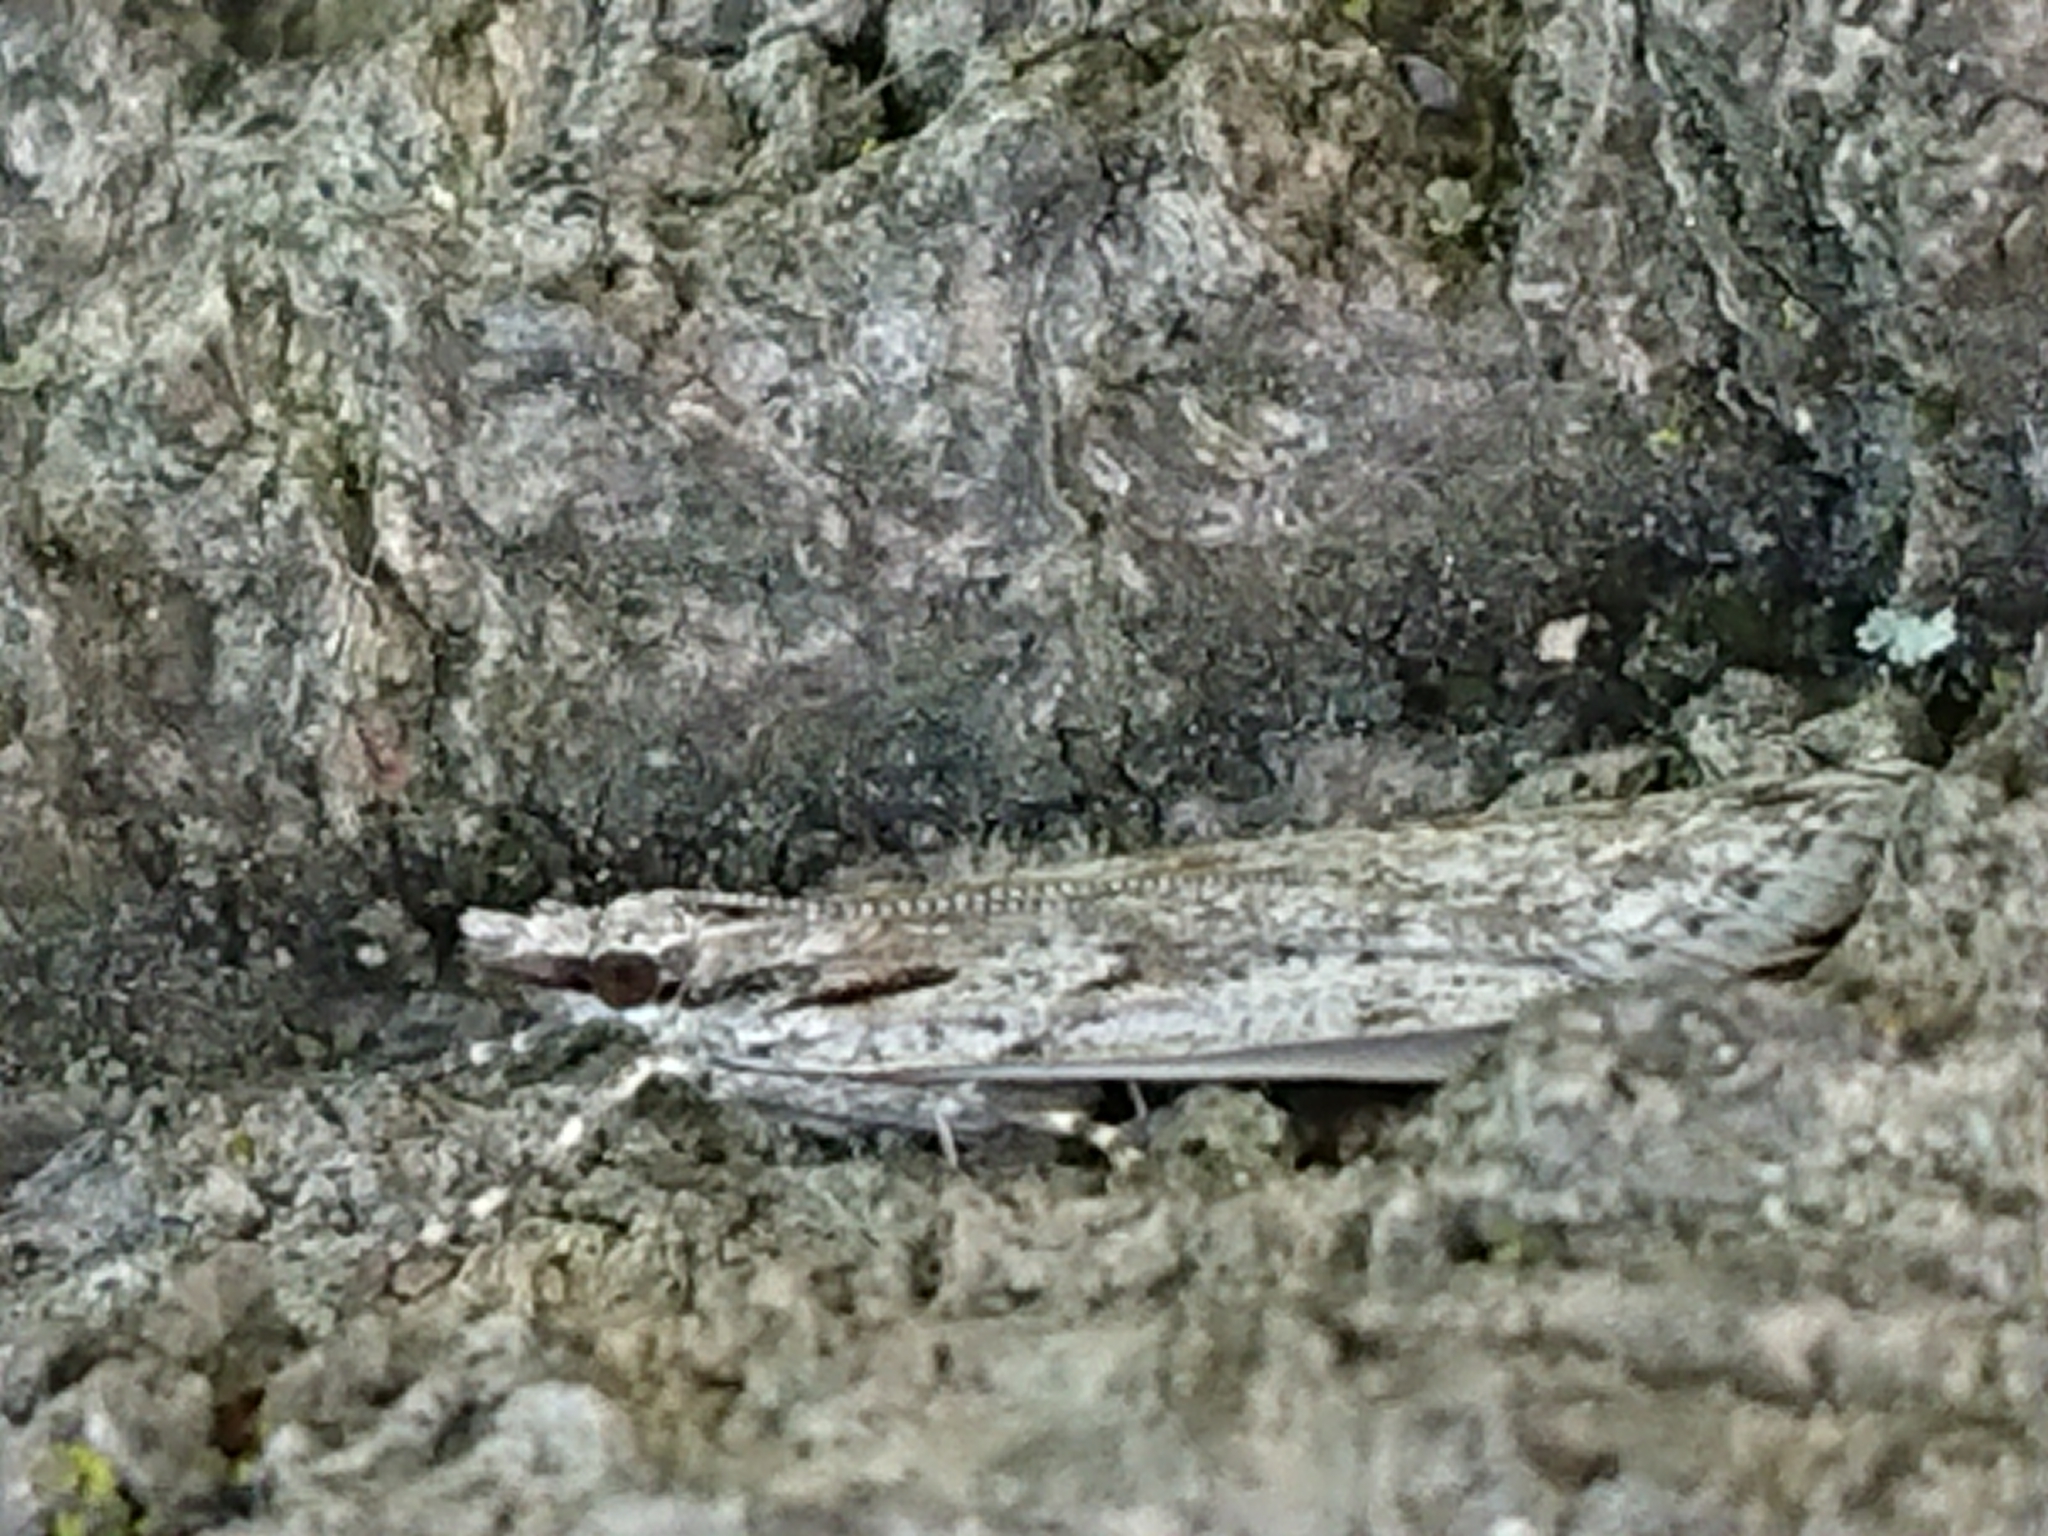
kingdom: Animalia
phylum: Arthropoda
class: Insecta
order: Lepidoptera
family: Crambidae
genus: Scoparia
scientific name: Scoparia chalicodes
